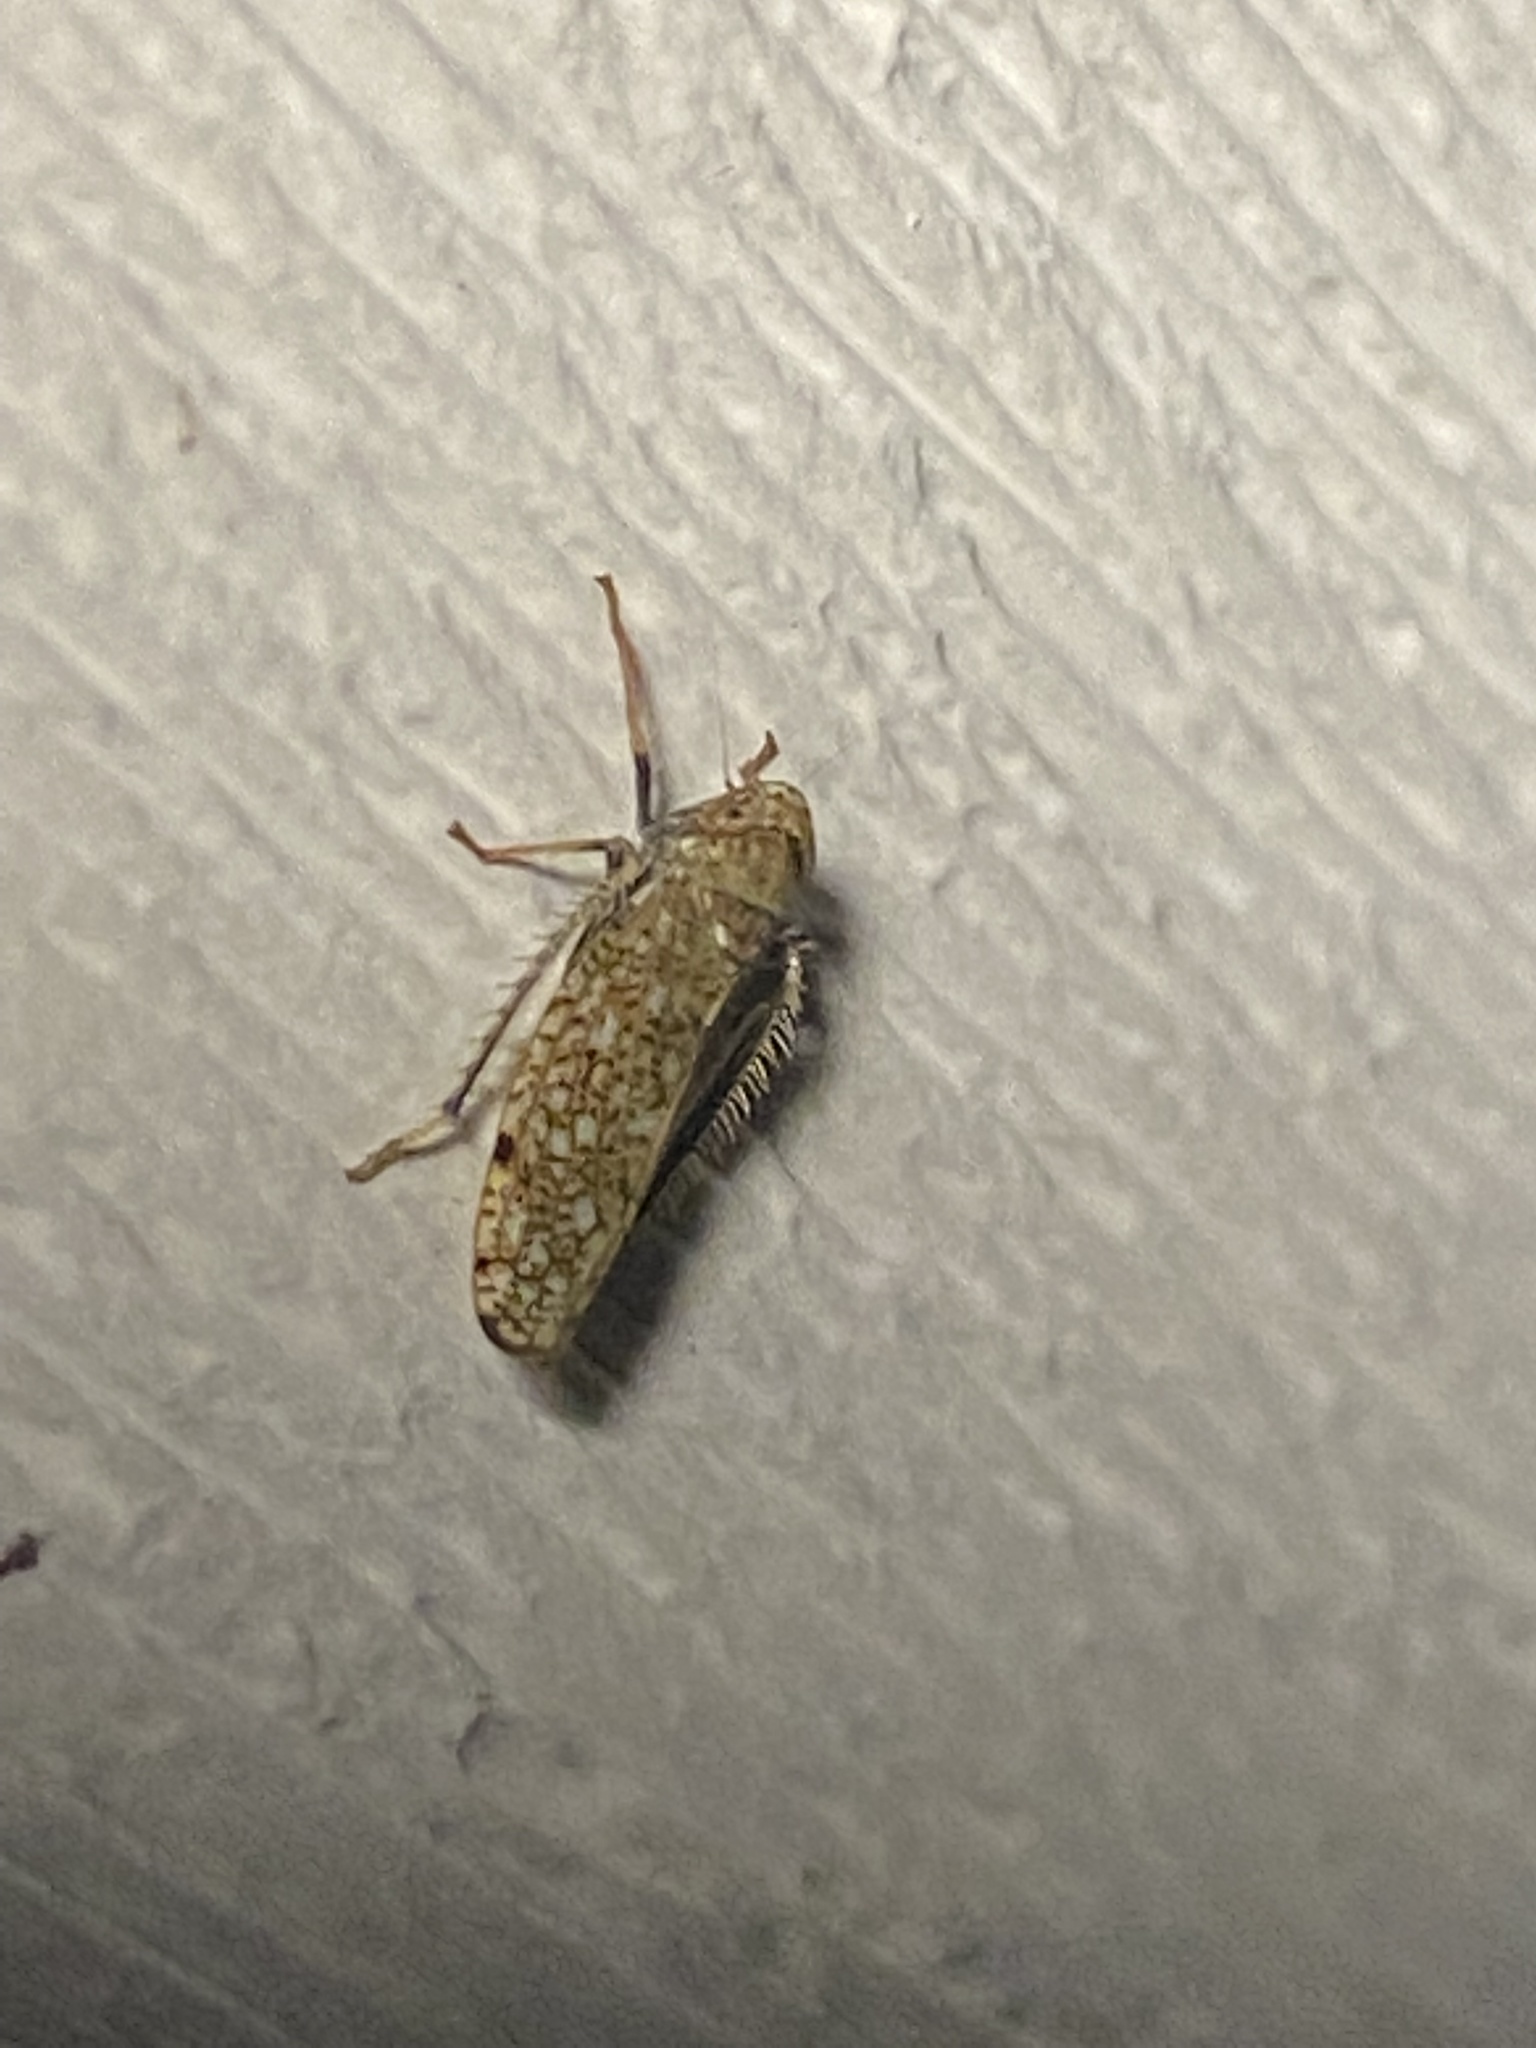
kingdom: Animalia
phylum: Arthropoda
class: Insecta
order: Hemiptera
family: Cicadellidae
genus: Orientus
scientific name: Orientus ishidae
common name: Japanese leafhopper
